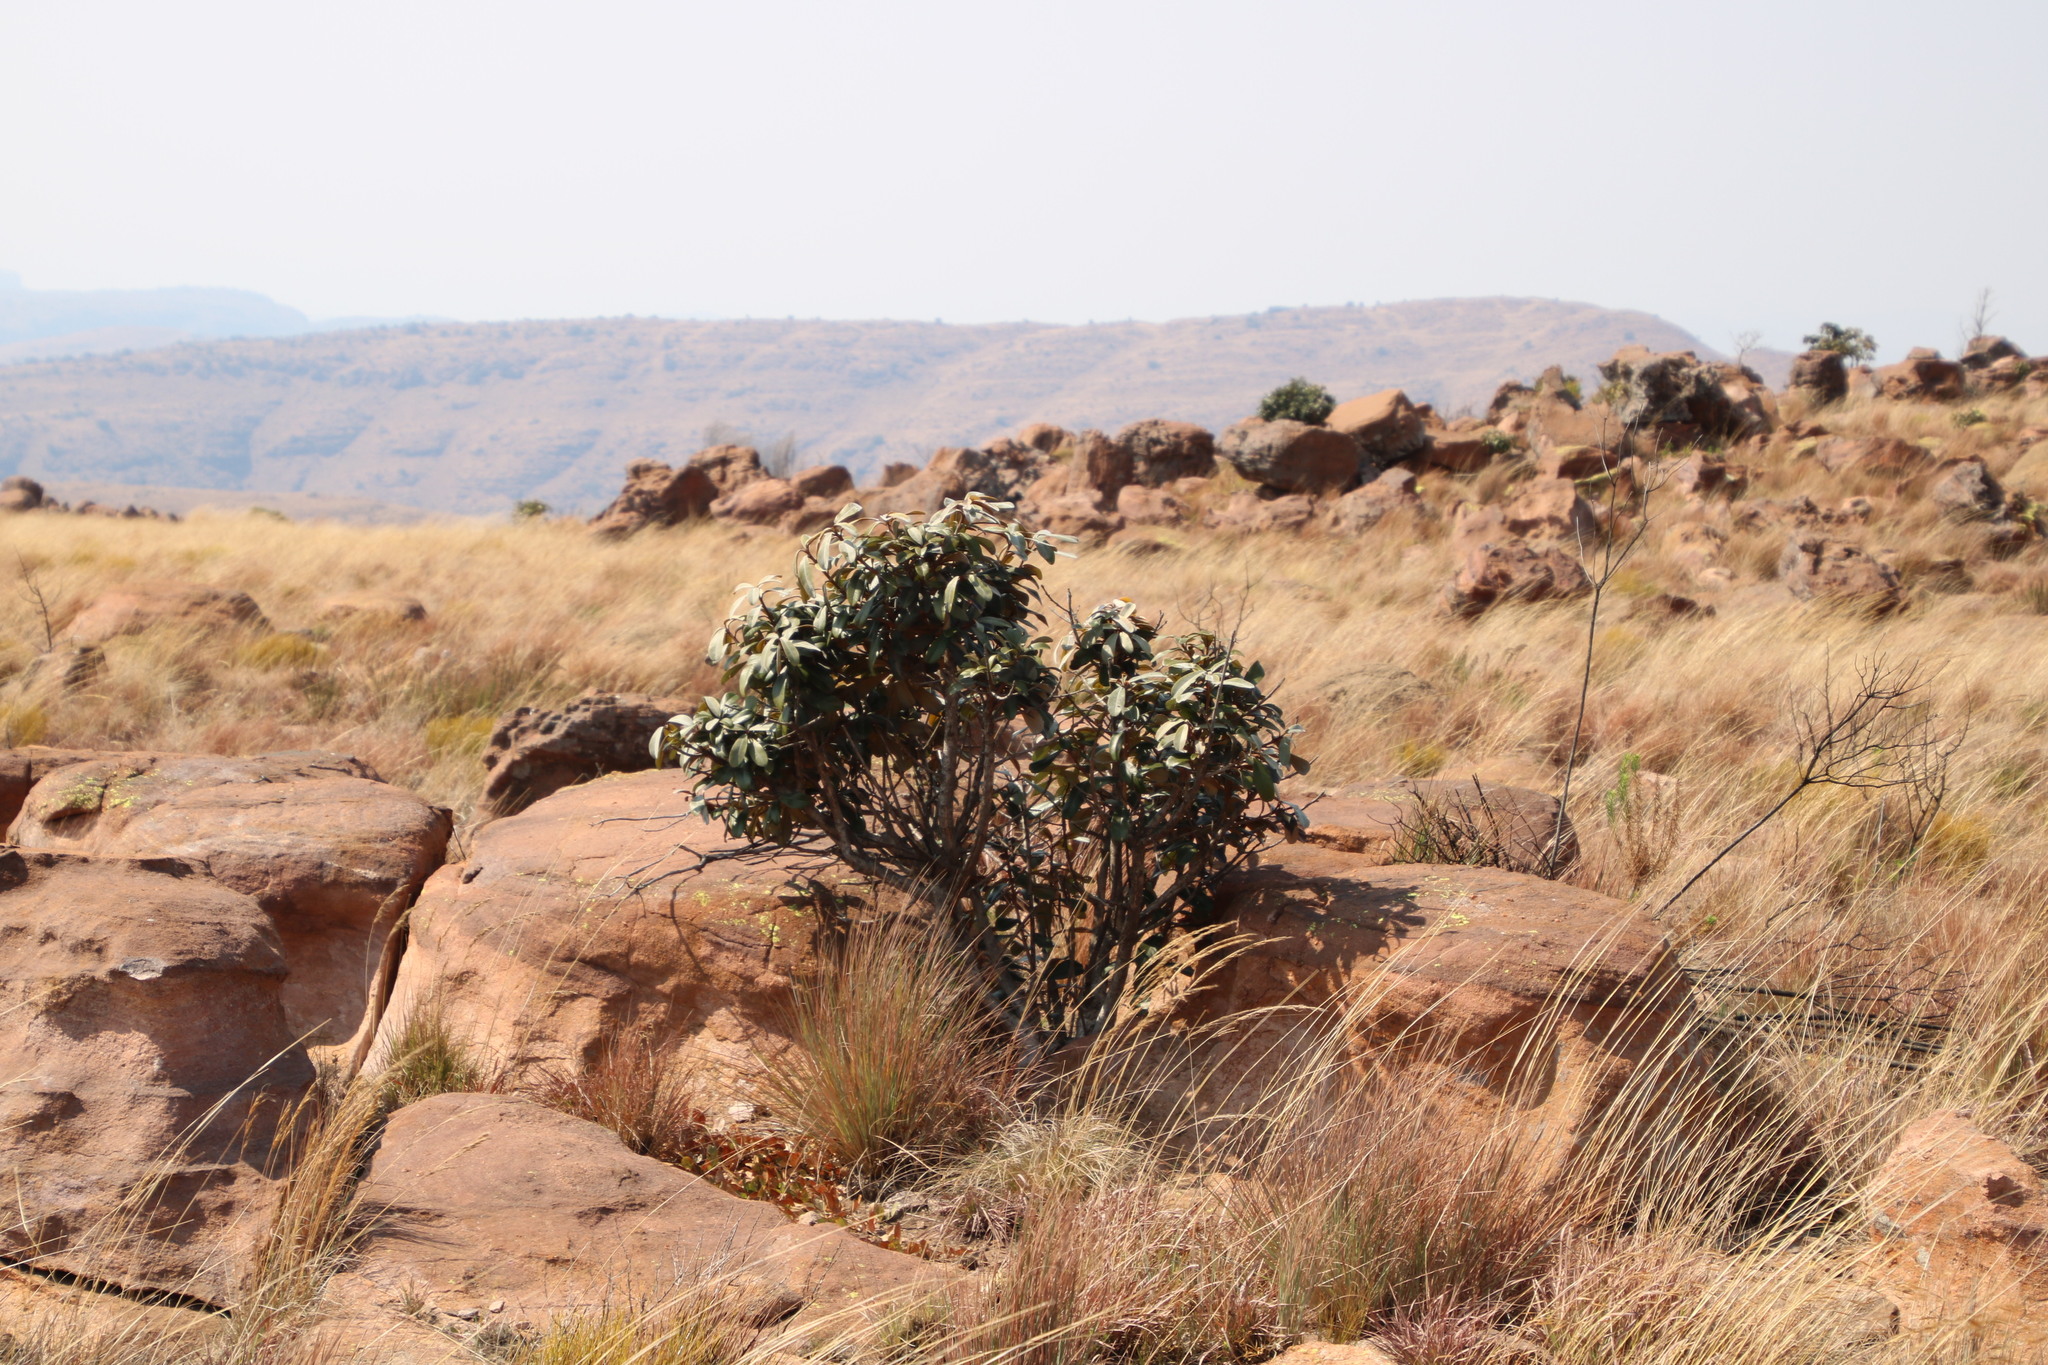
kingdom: Plantae
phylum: Tracheophyta
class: Magnoliopsida
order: Ericales
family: Sapotaceae
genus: Englerophytum
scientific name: Englerophytum magalismontanum
